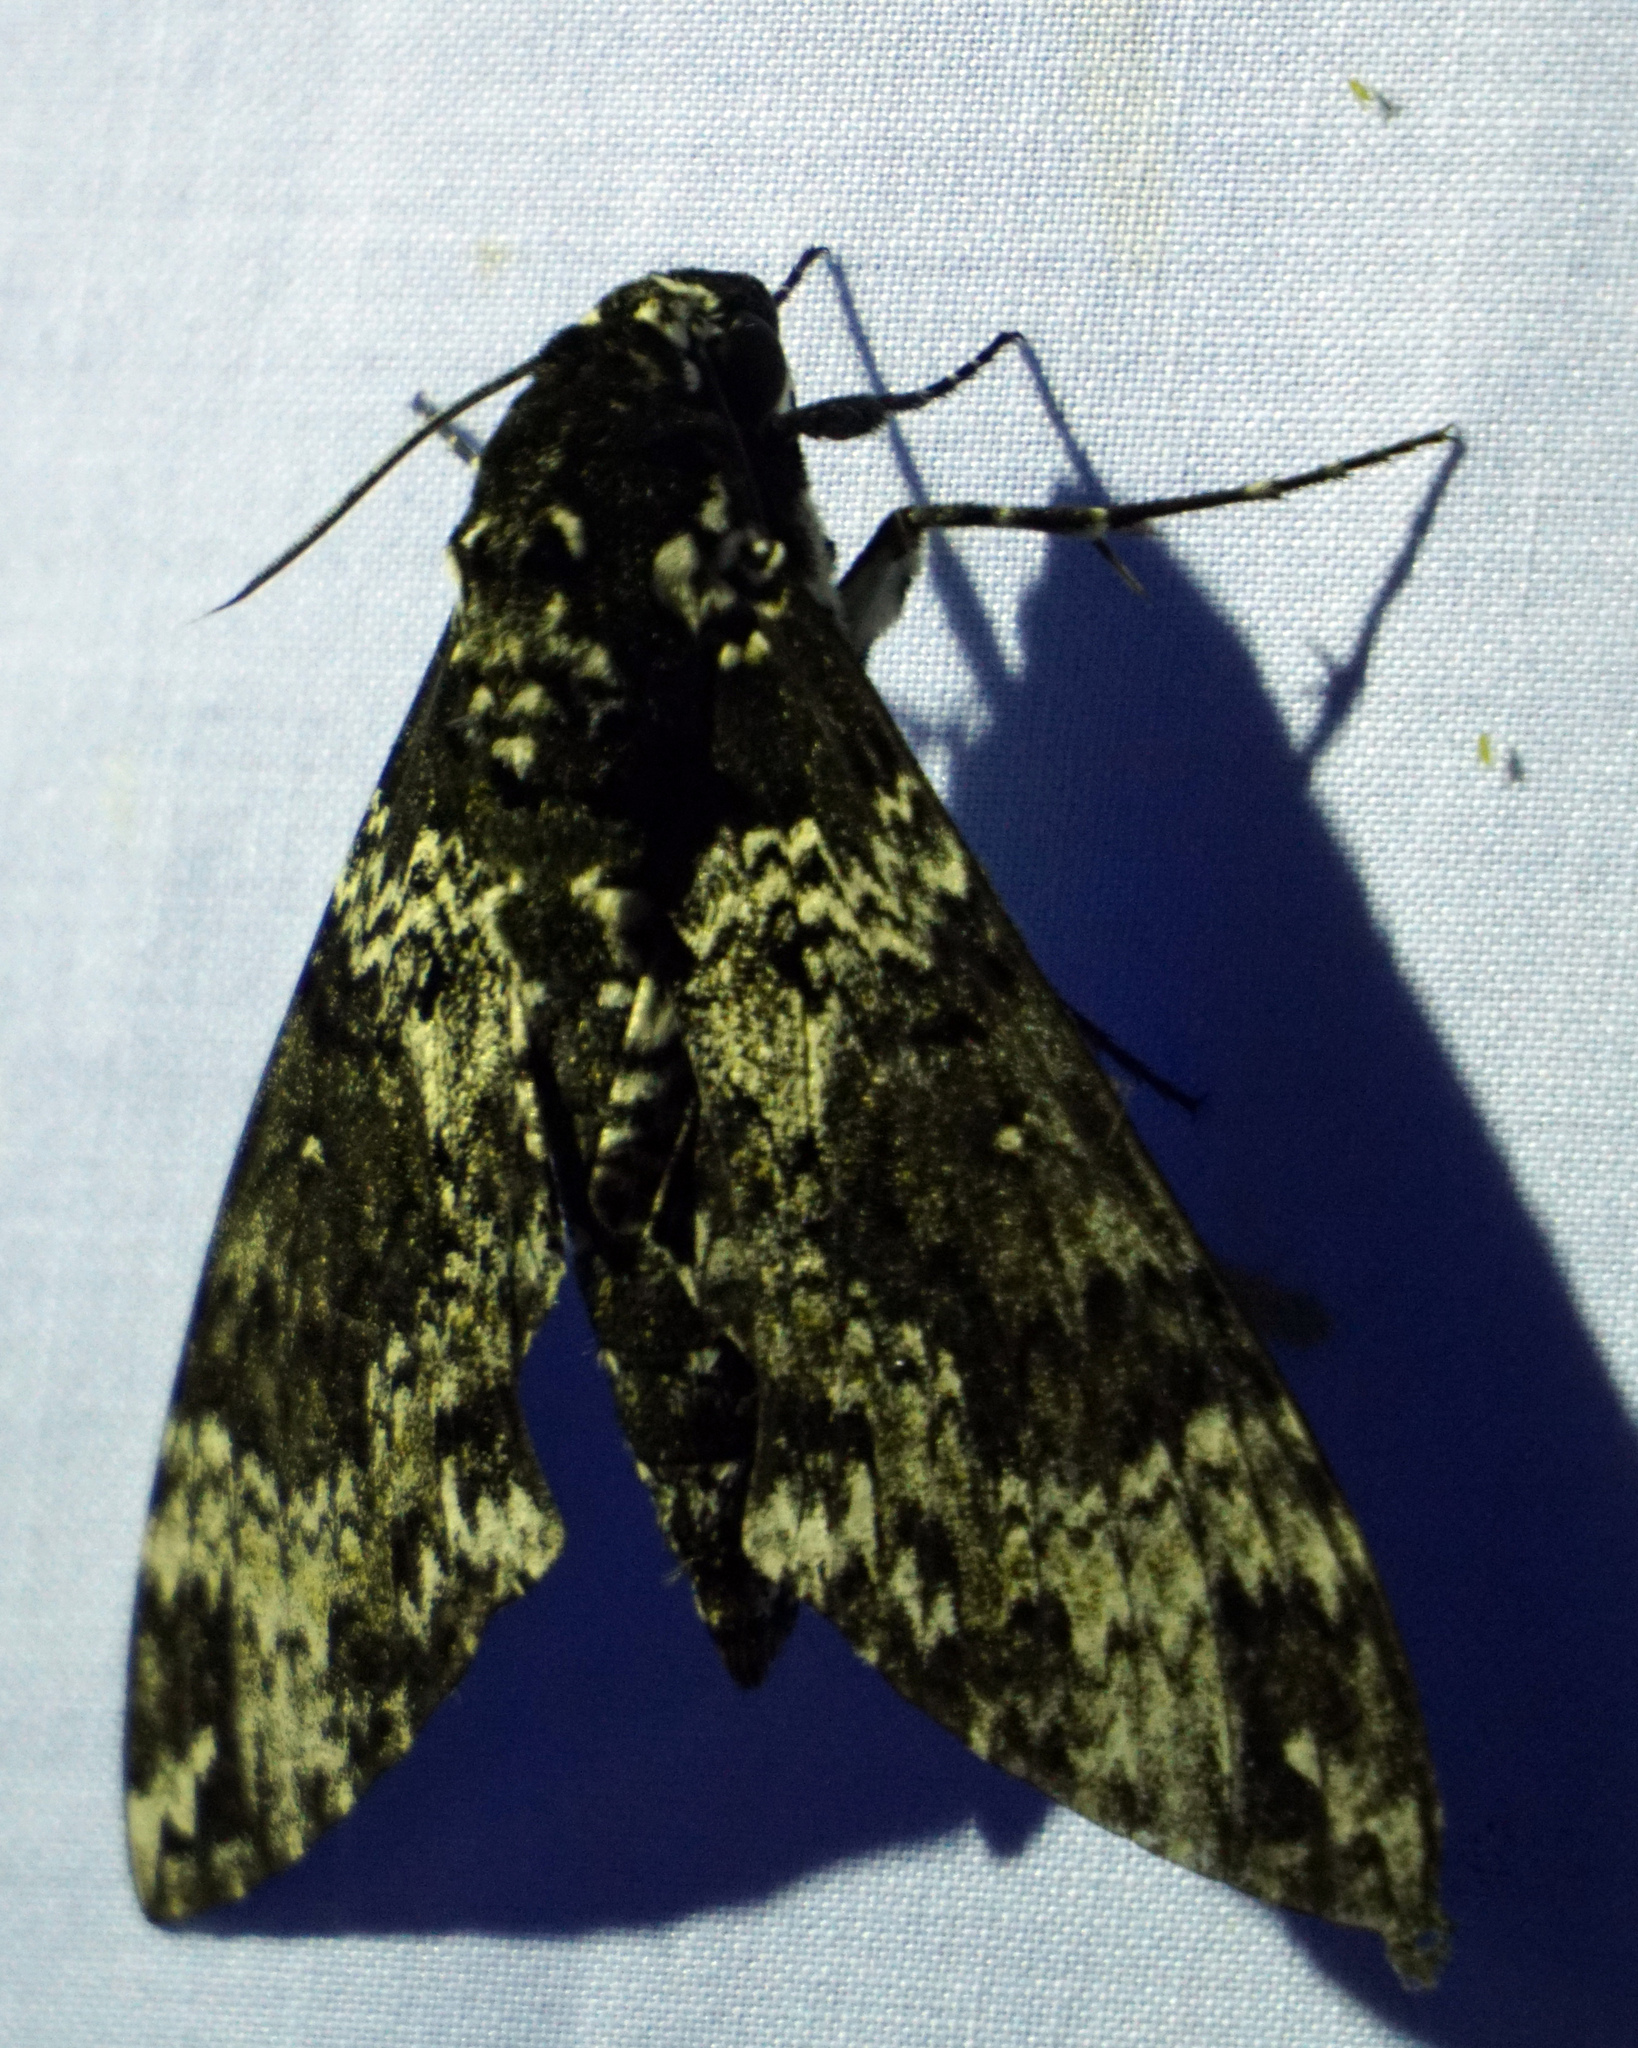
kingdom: Animalia
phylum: Arthropoda
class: Insecta
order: Lepidoptera
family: Sphingidae
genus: Manduca
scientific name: Manduca rustica
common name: Rustic sphinx
